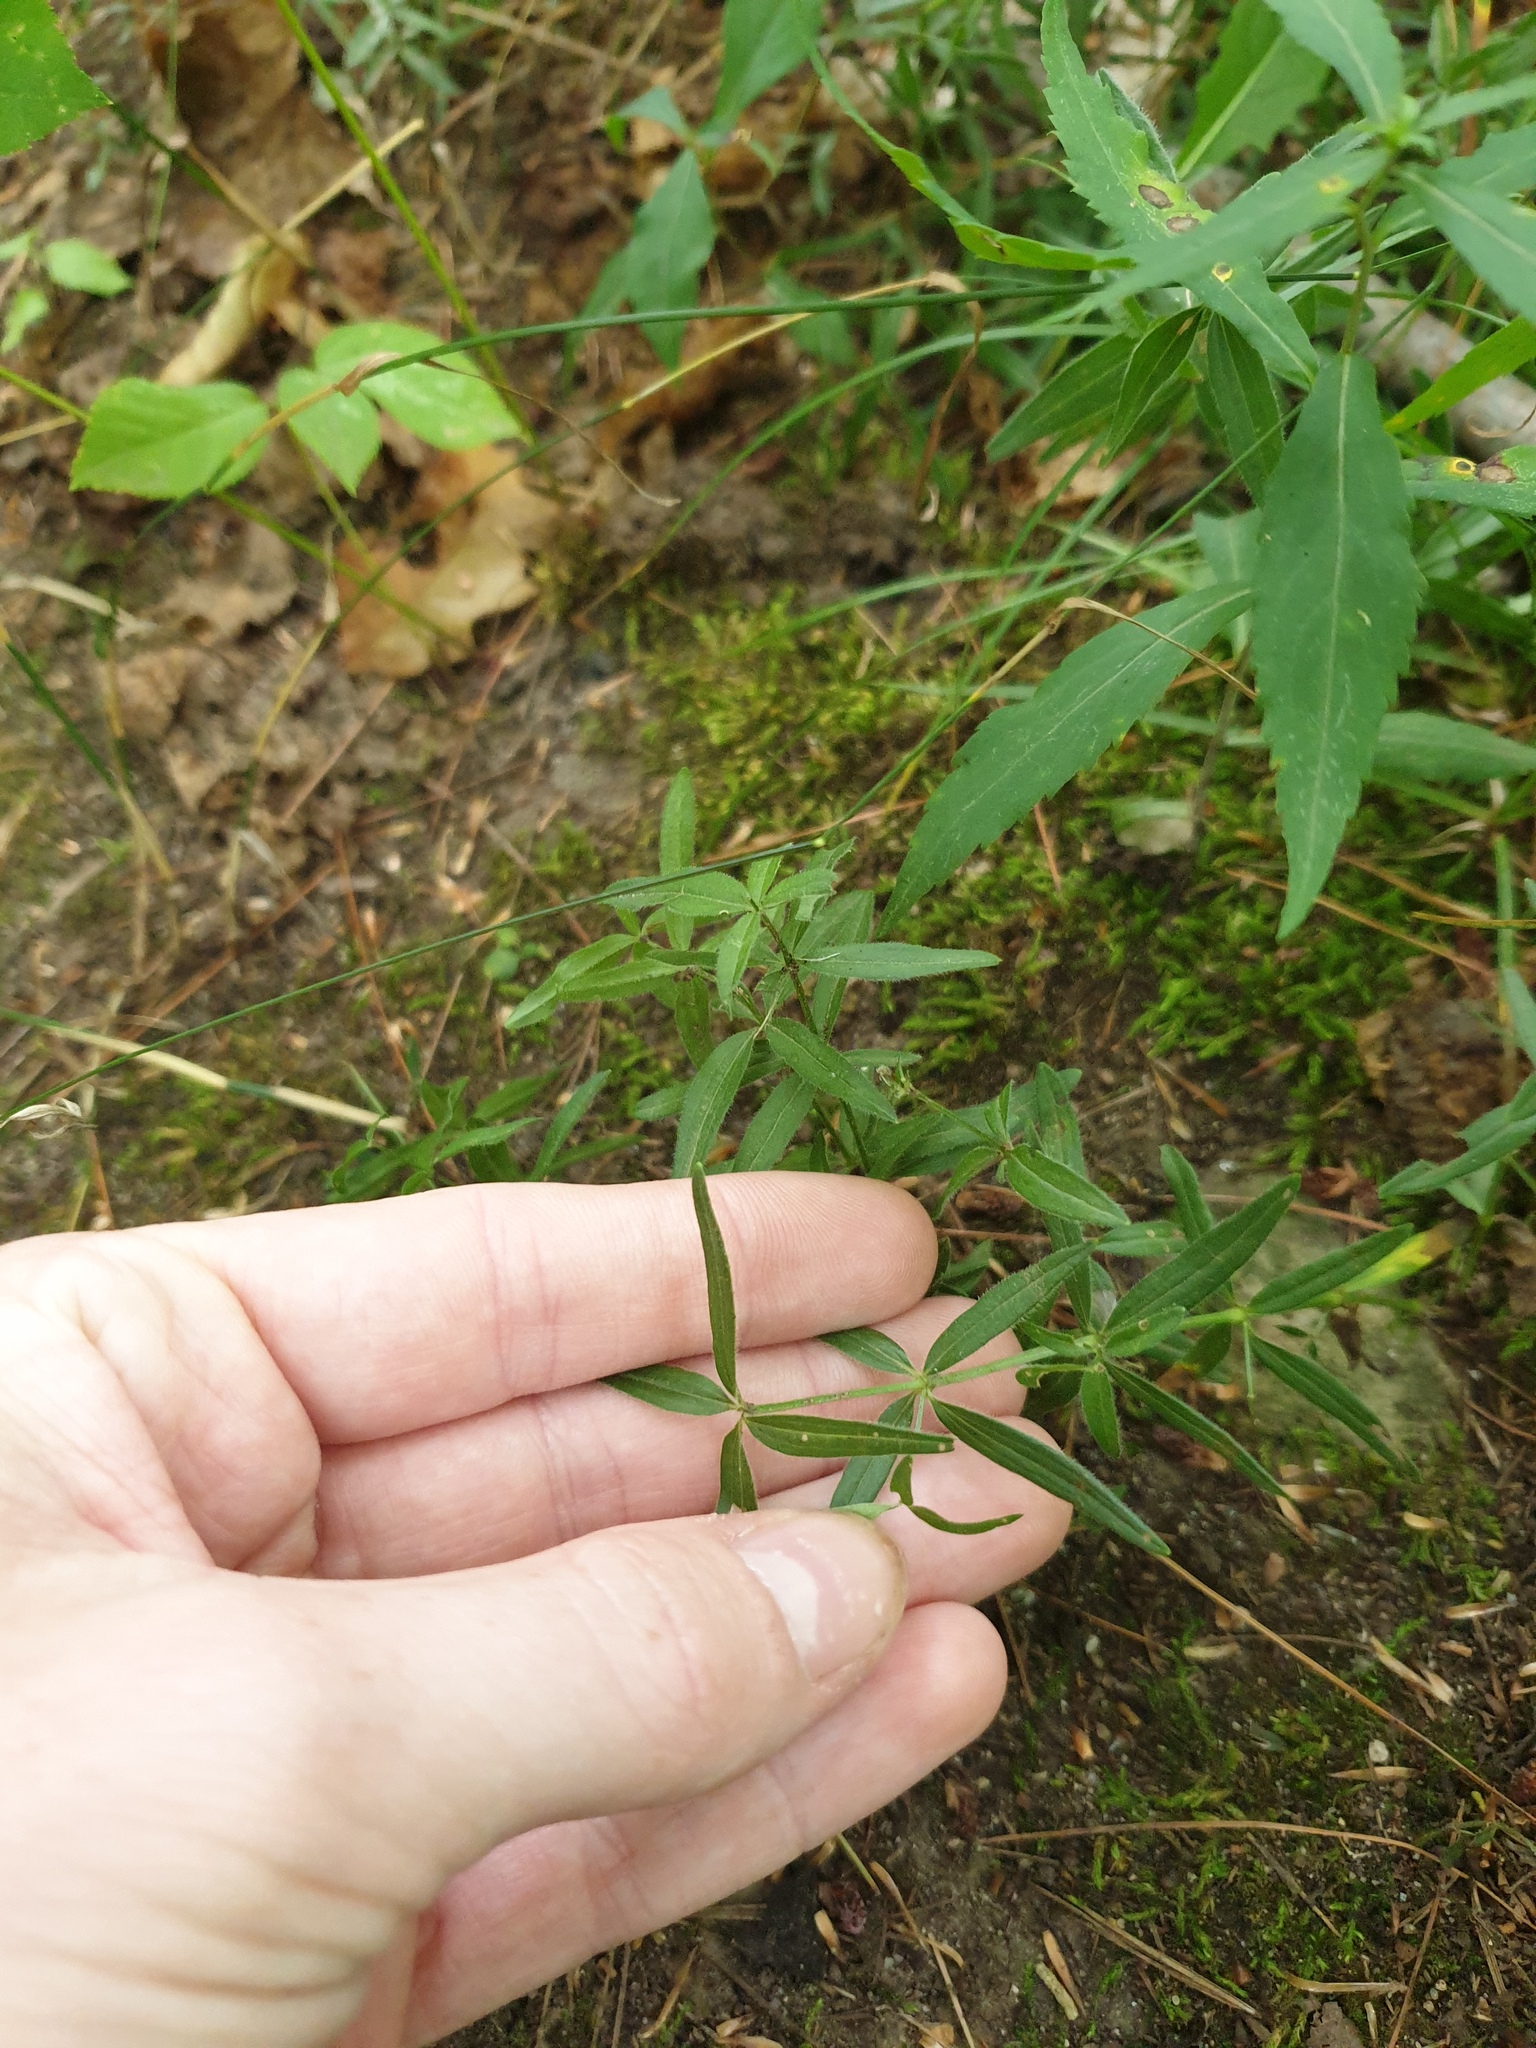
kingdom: Plantae
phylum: Tracheophyta
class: Magnoliopsida
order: Gentianales
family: Rubiaceae
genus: Galium
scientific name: Galium boreale
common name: Northern bedstraw
